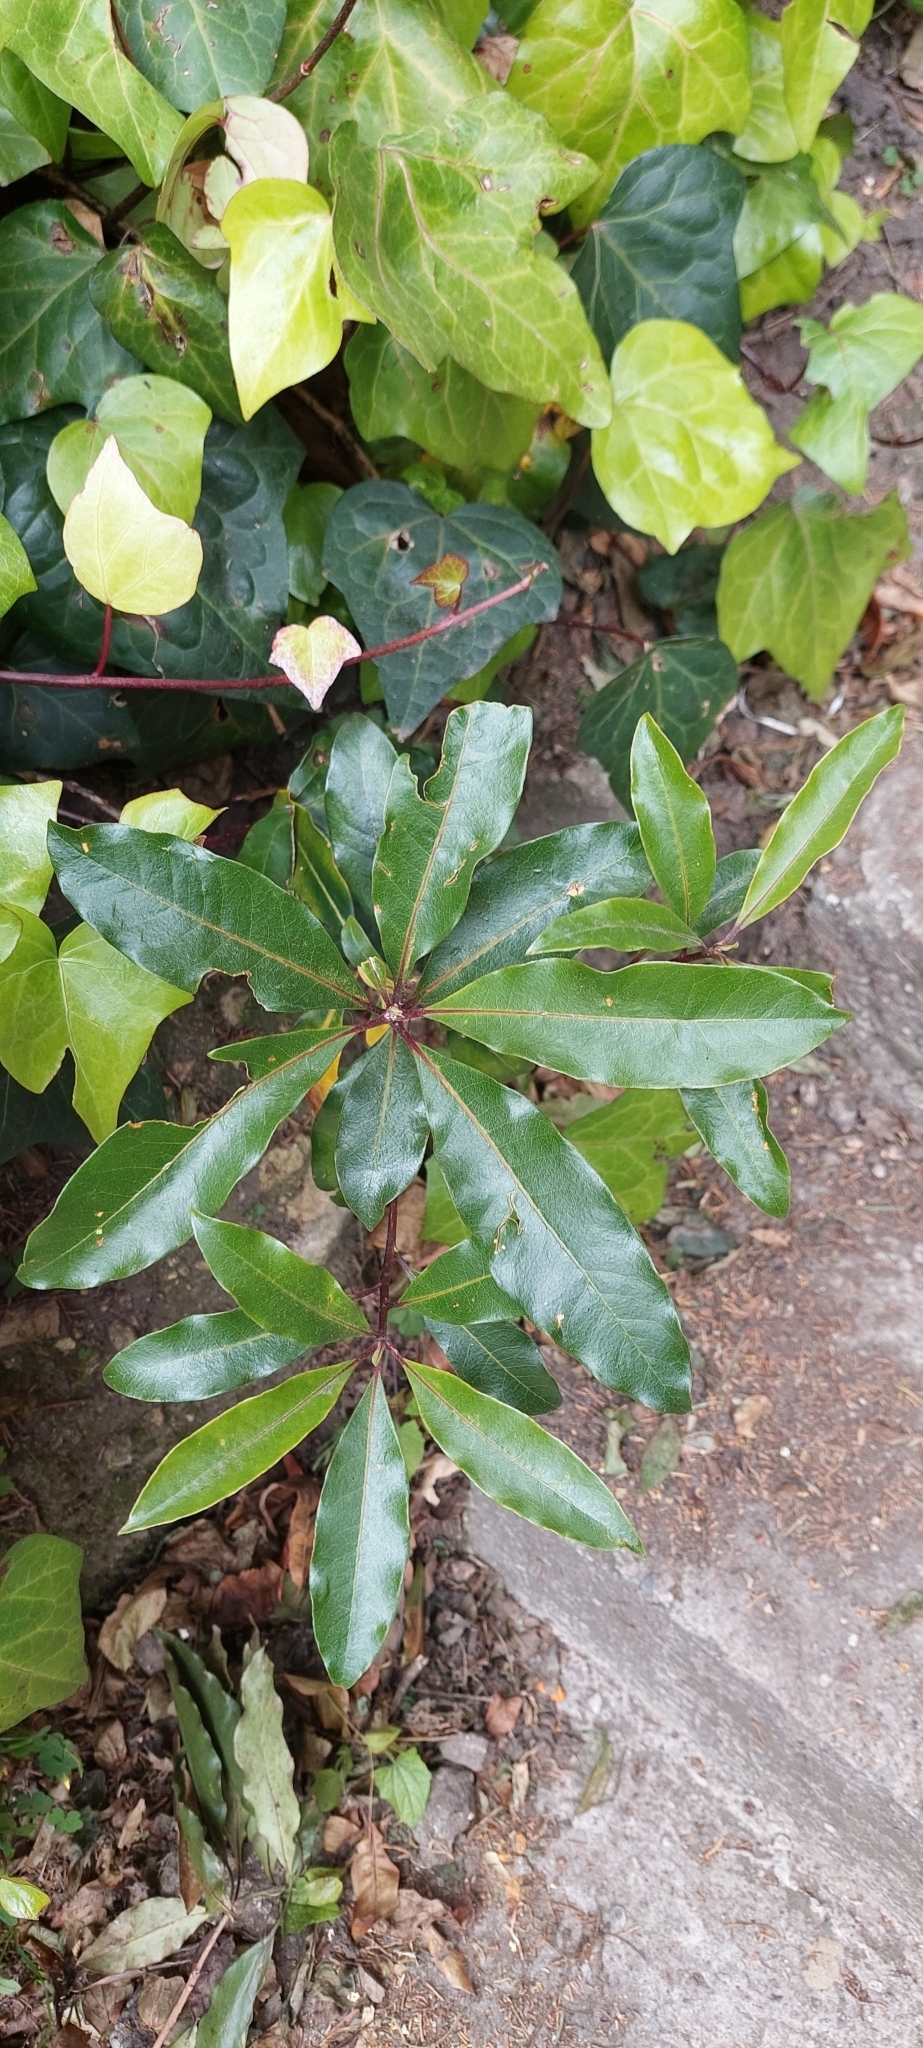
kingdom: Plantae
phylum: Tracheophyta
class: Magnoliopsida
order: Apiales
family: Pittosporaceae
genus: Pittosporum
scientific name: Pittosporum undulatum
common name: Australian cheesewood
